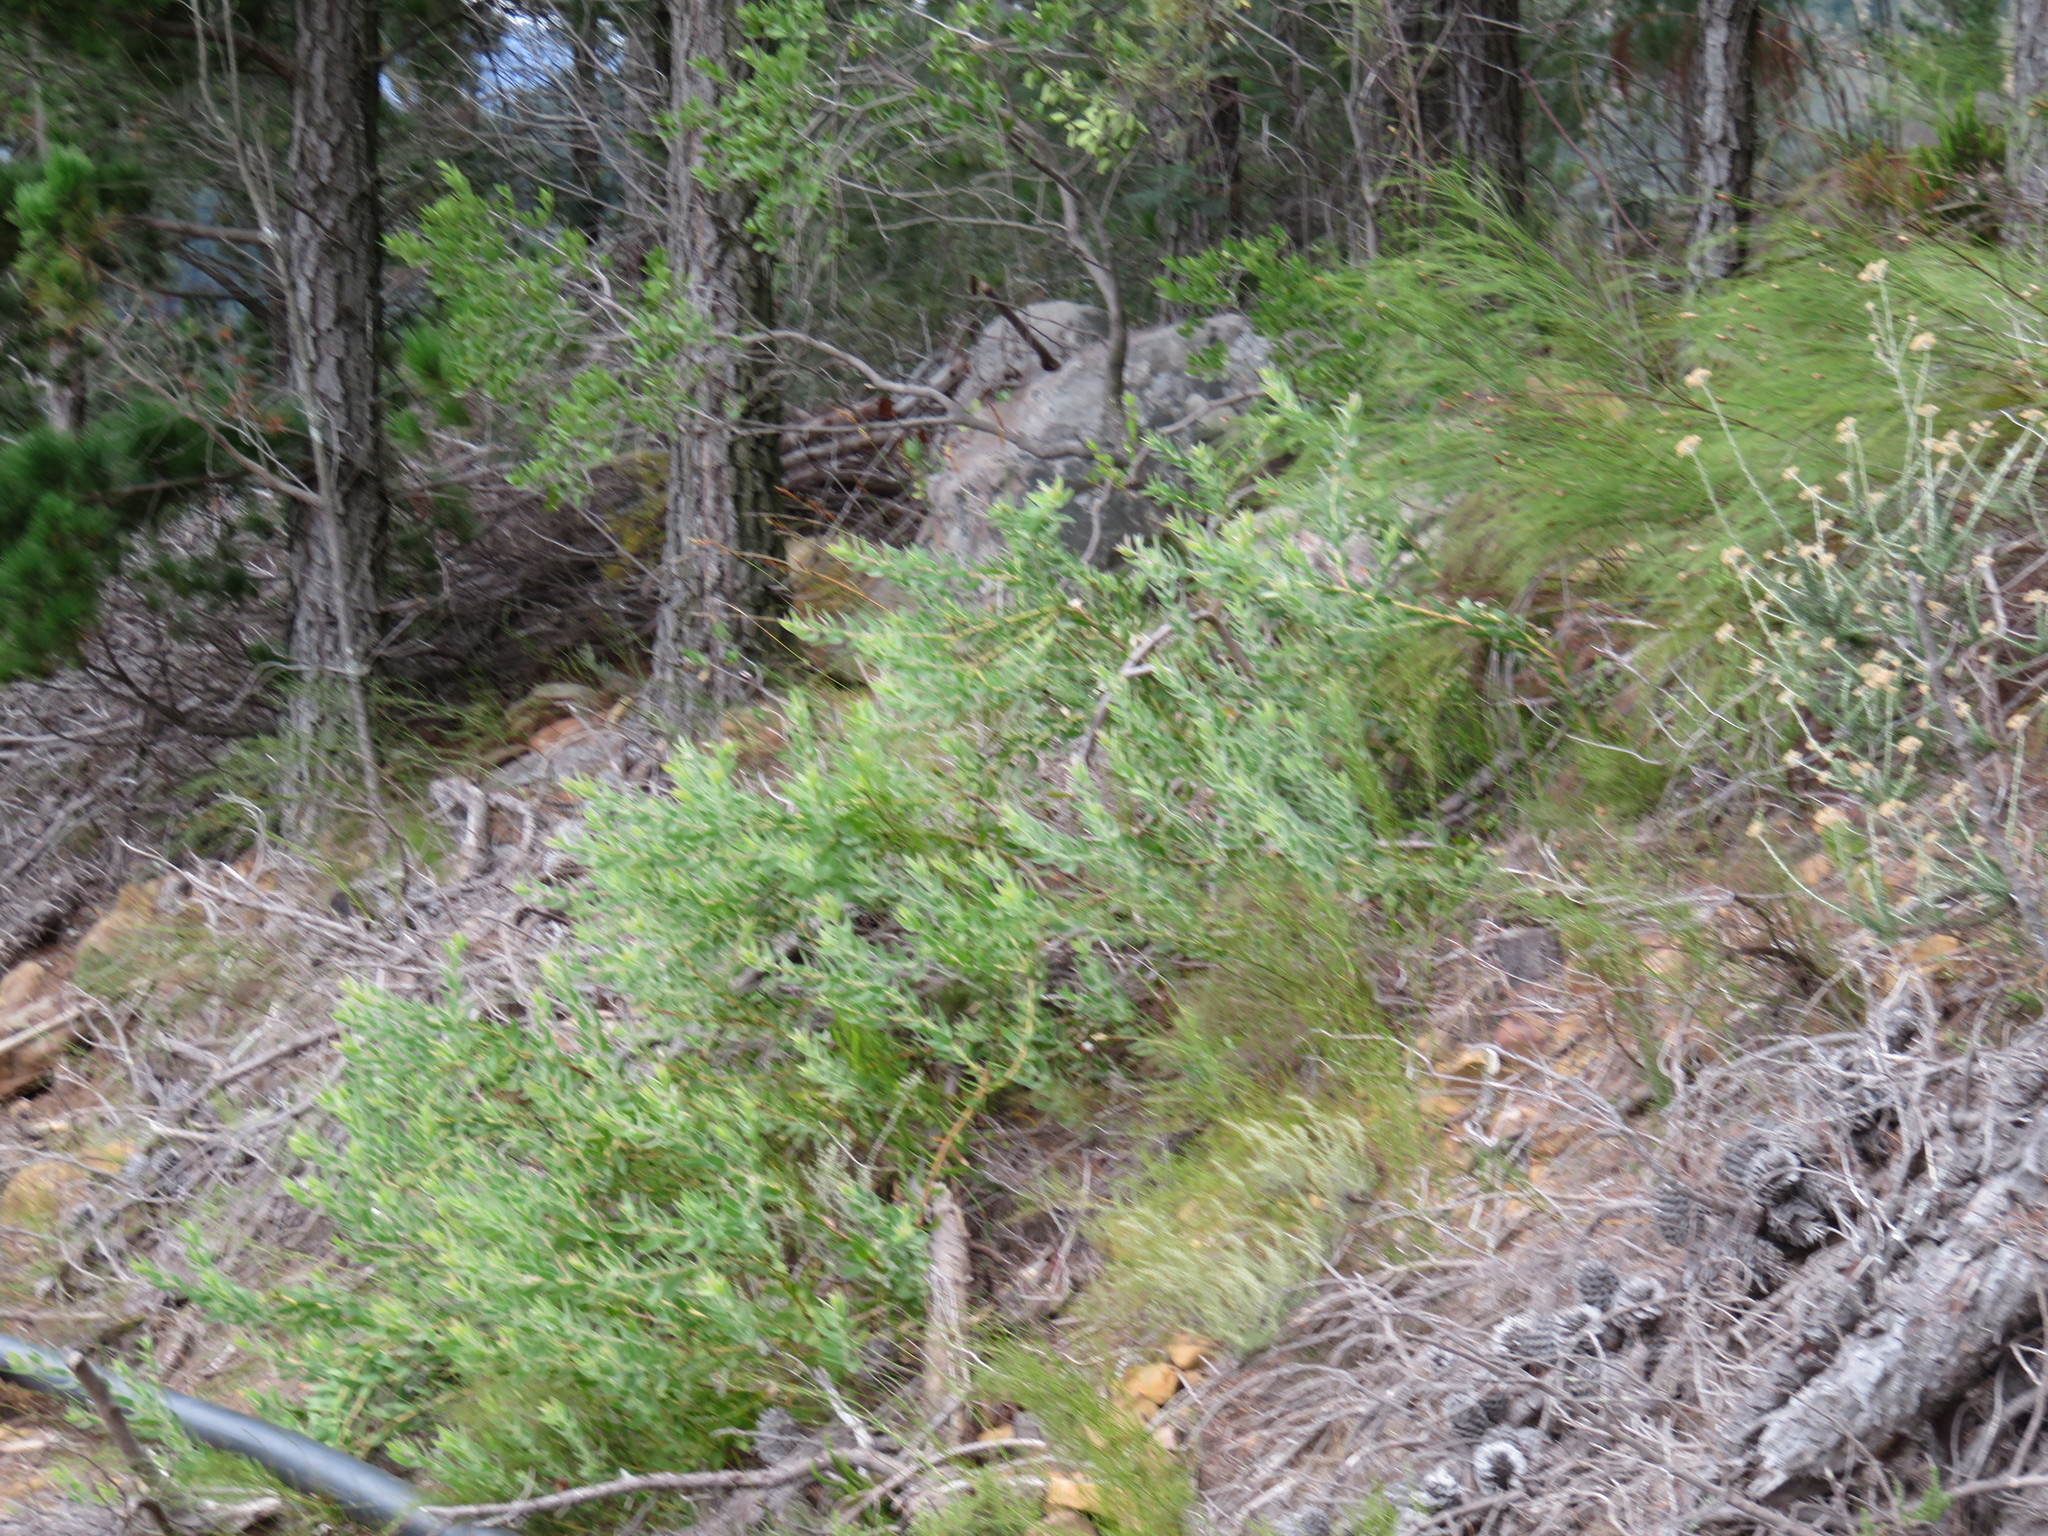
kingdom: Plantae
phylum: Tracheophyta
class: Magnoliopsida
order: Proteales
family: Proteaceae
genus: Leucospermum
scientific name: Leucospermum tottum
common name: Ribbon pincushion
